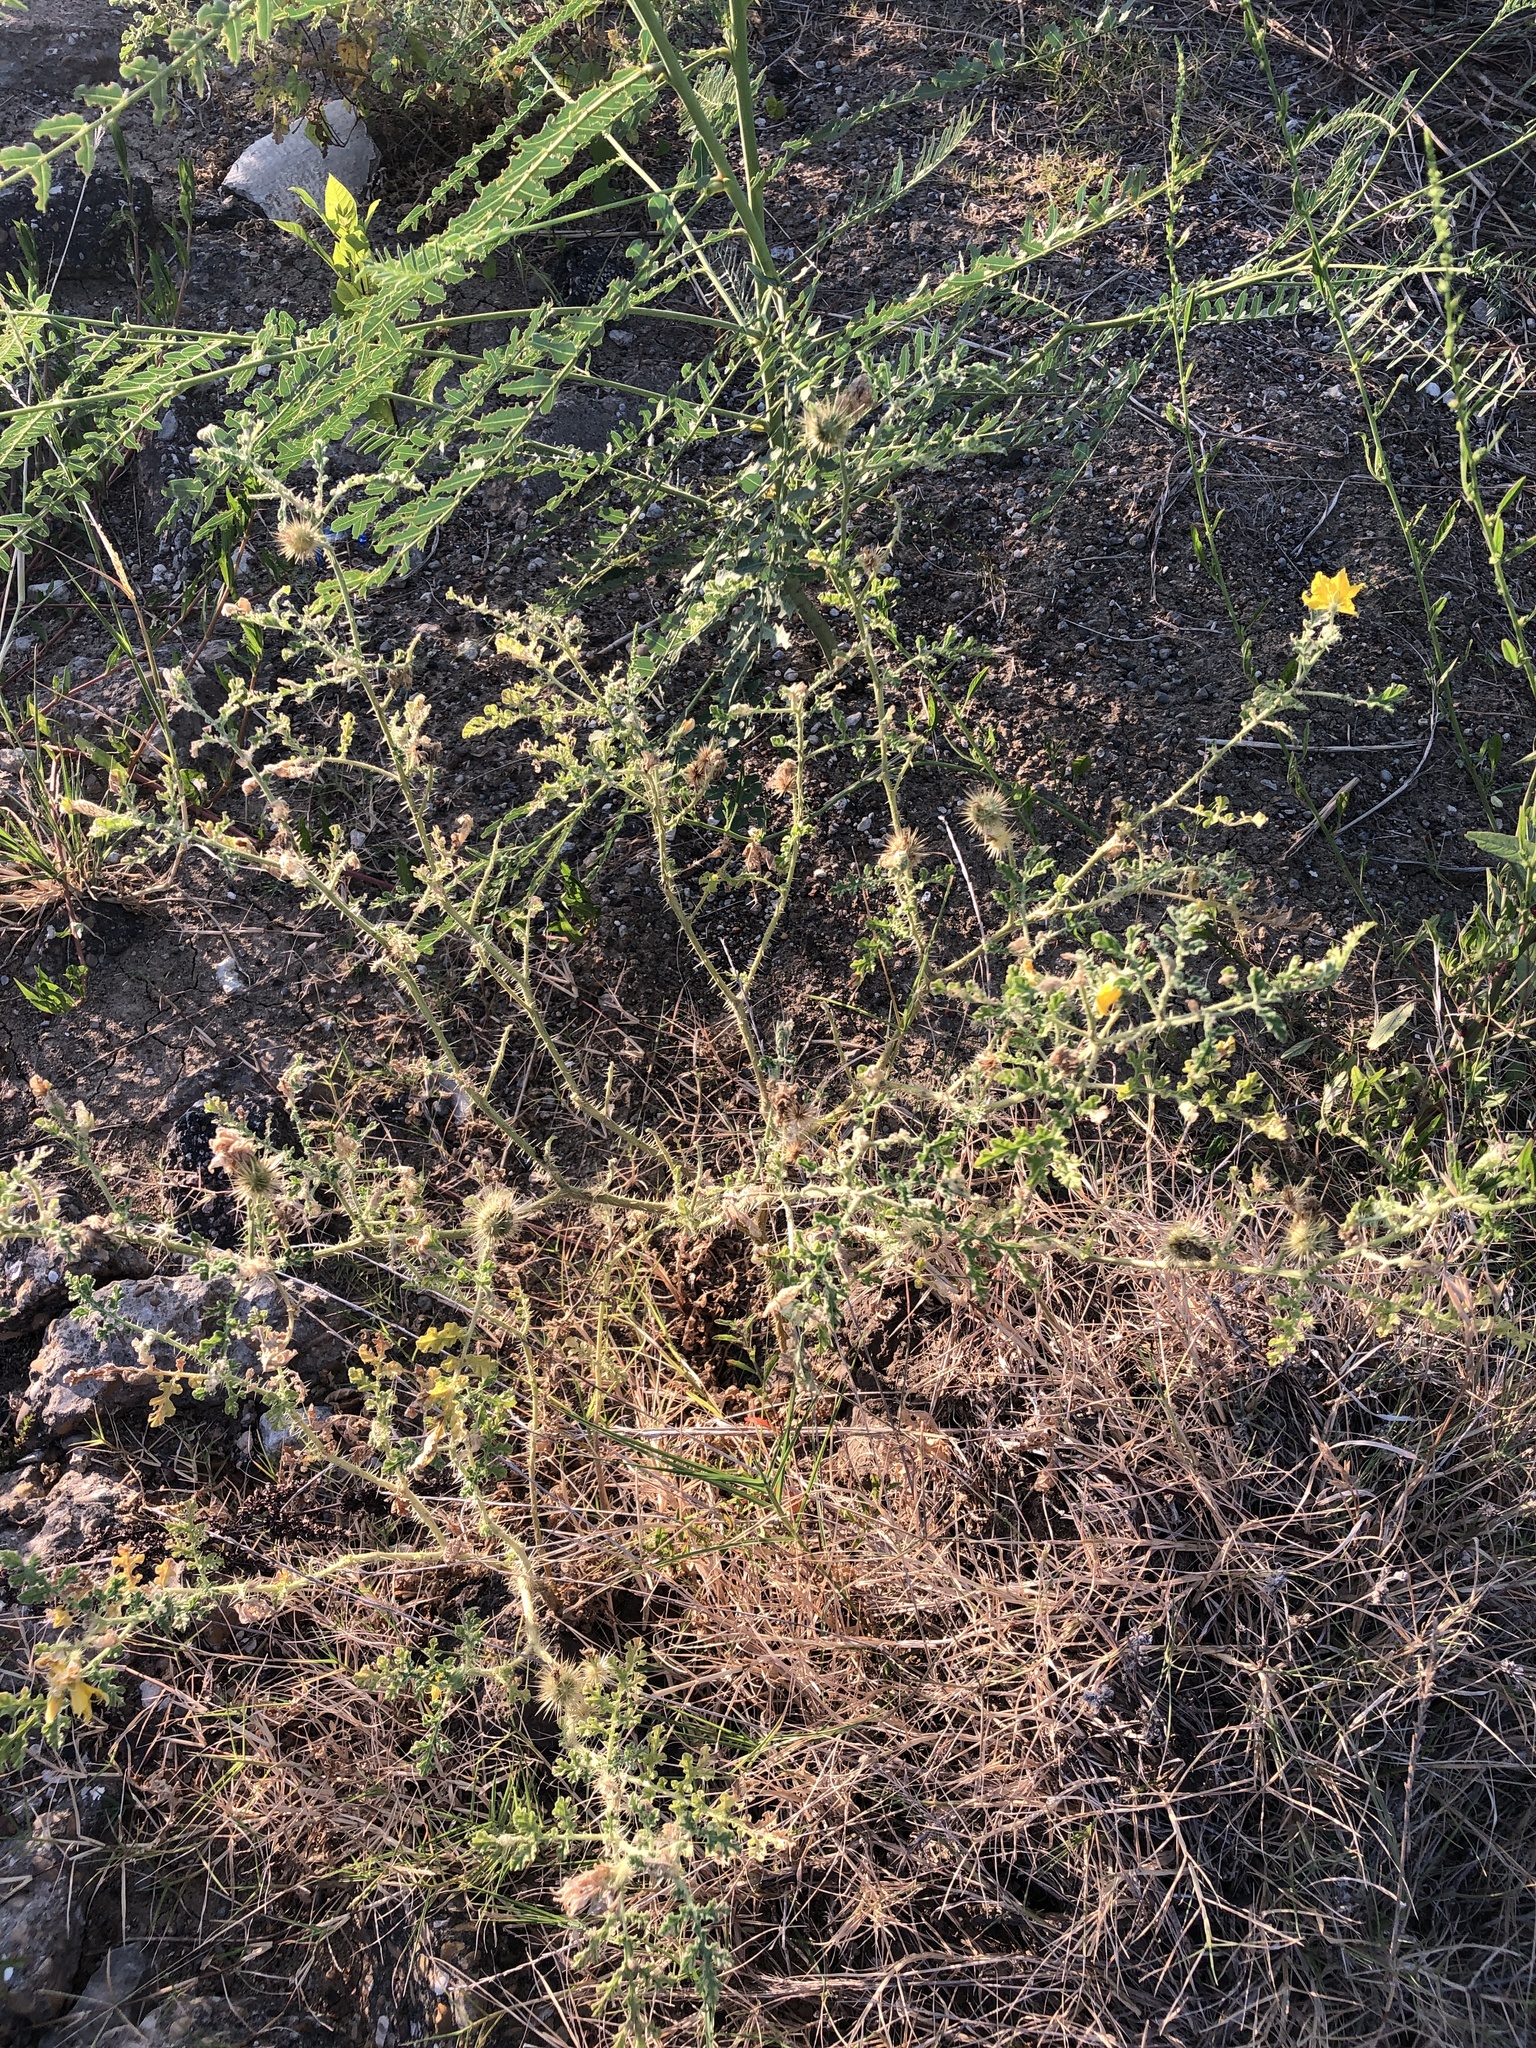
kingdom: Plantae
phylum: Tracheophyta
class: Magnoliopsida
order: Solanales
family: Solanaceae
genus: Solanum
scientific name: Solanum angustifolium
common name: Buffalobur nightshade
